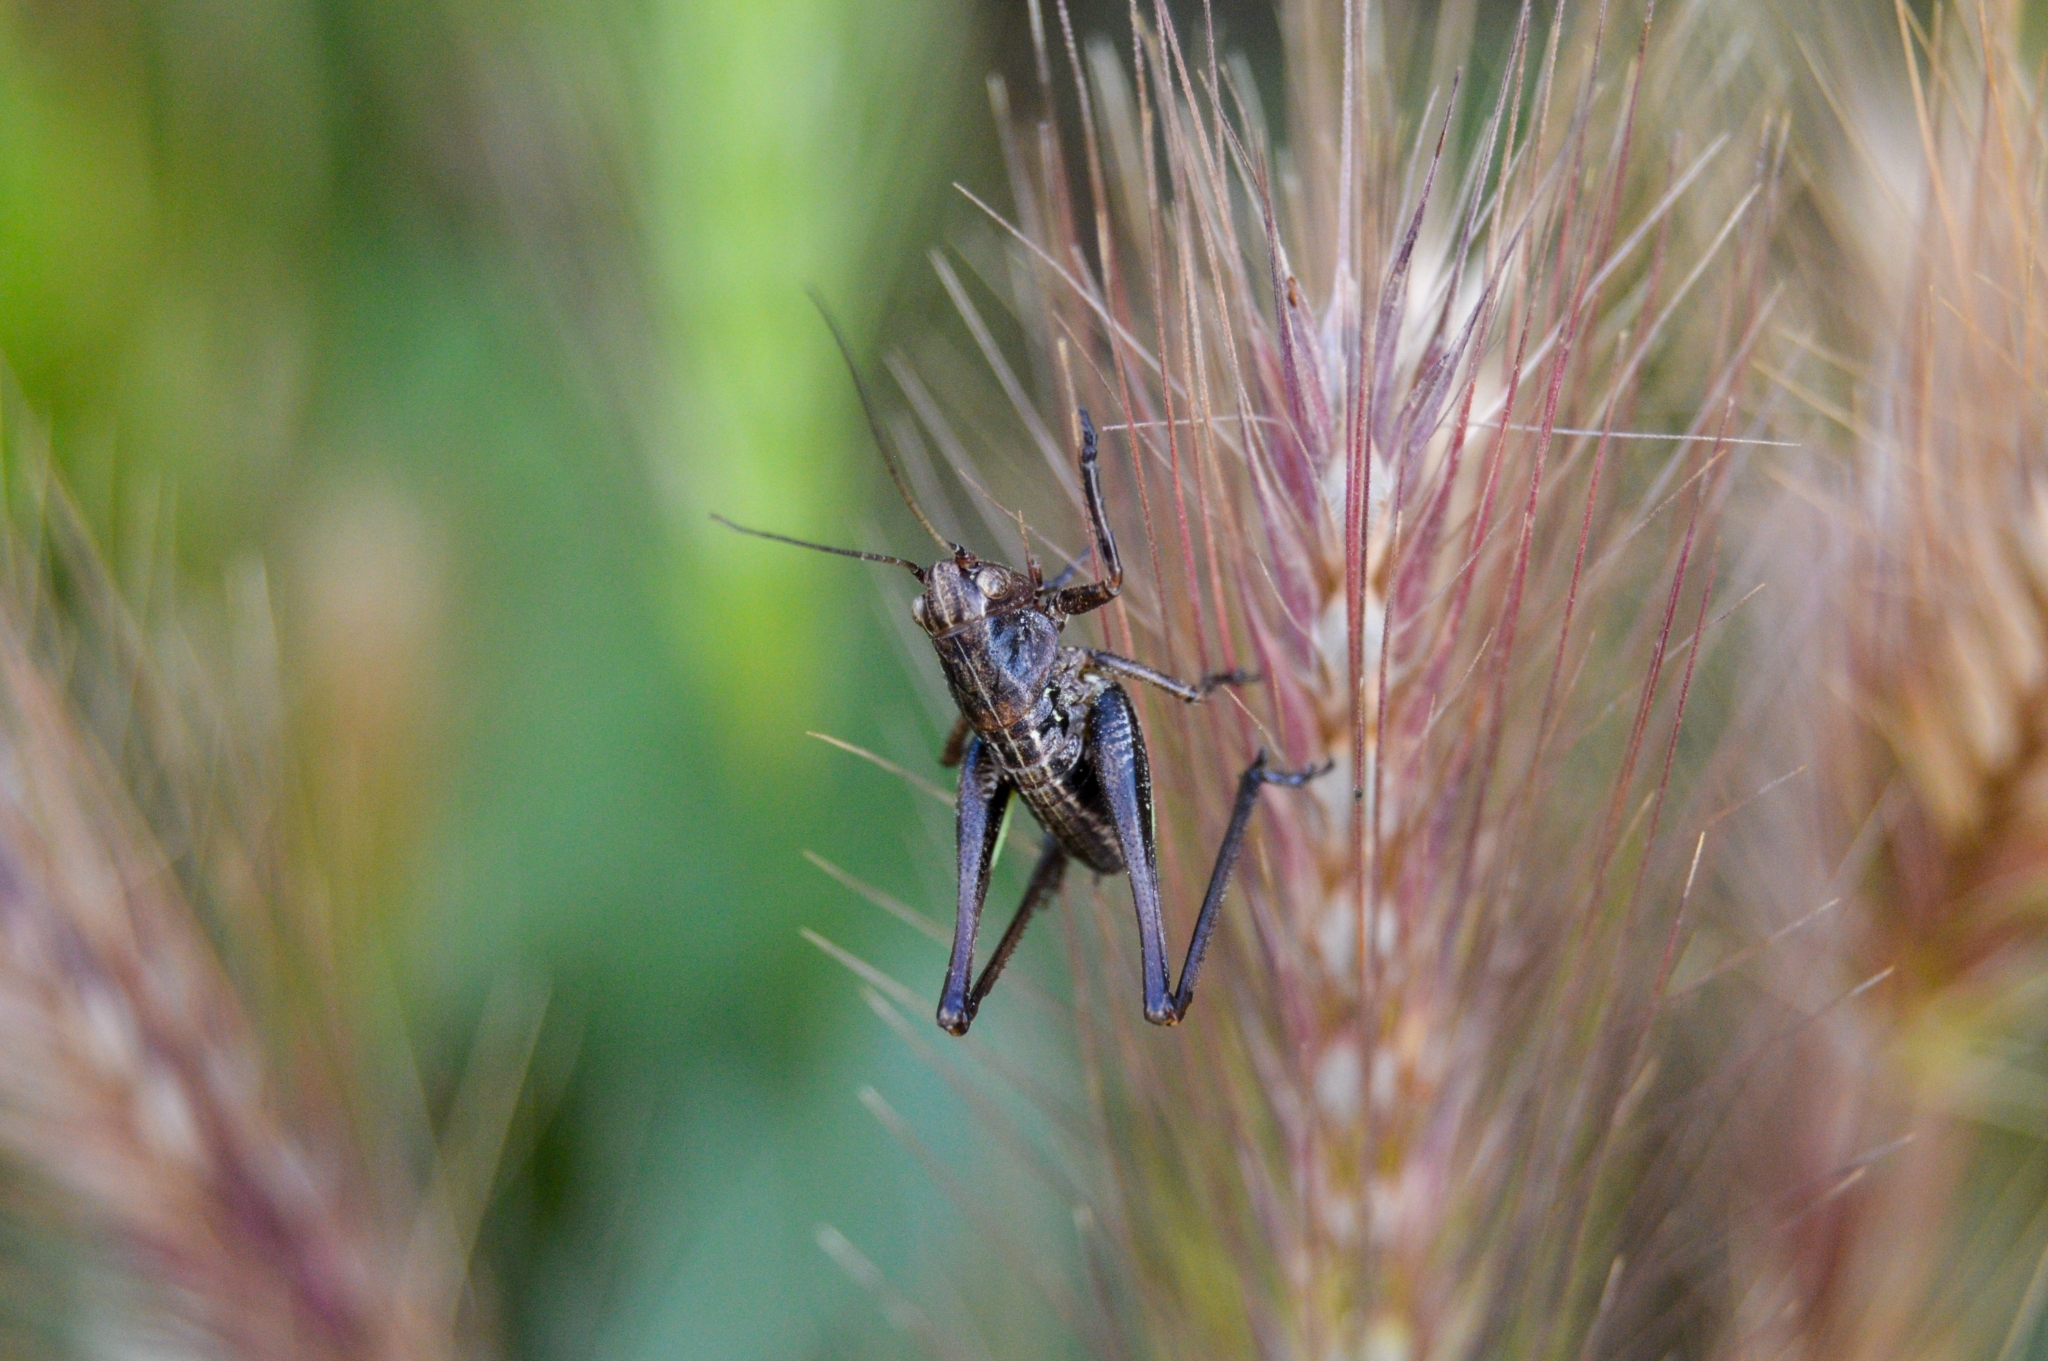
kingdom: Animalia
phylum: Arthropoda
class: Insecta
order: Orthoptera
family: Tettigoniidae
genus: Decticus
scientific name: Decticus albifrons
